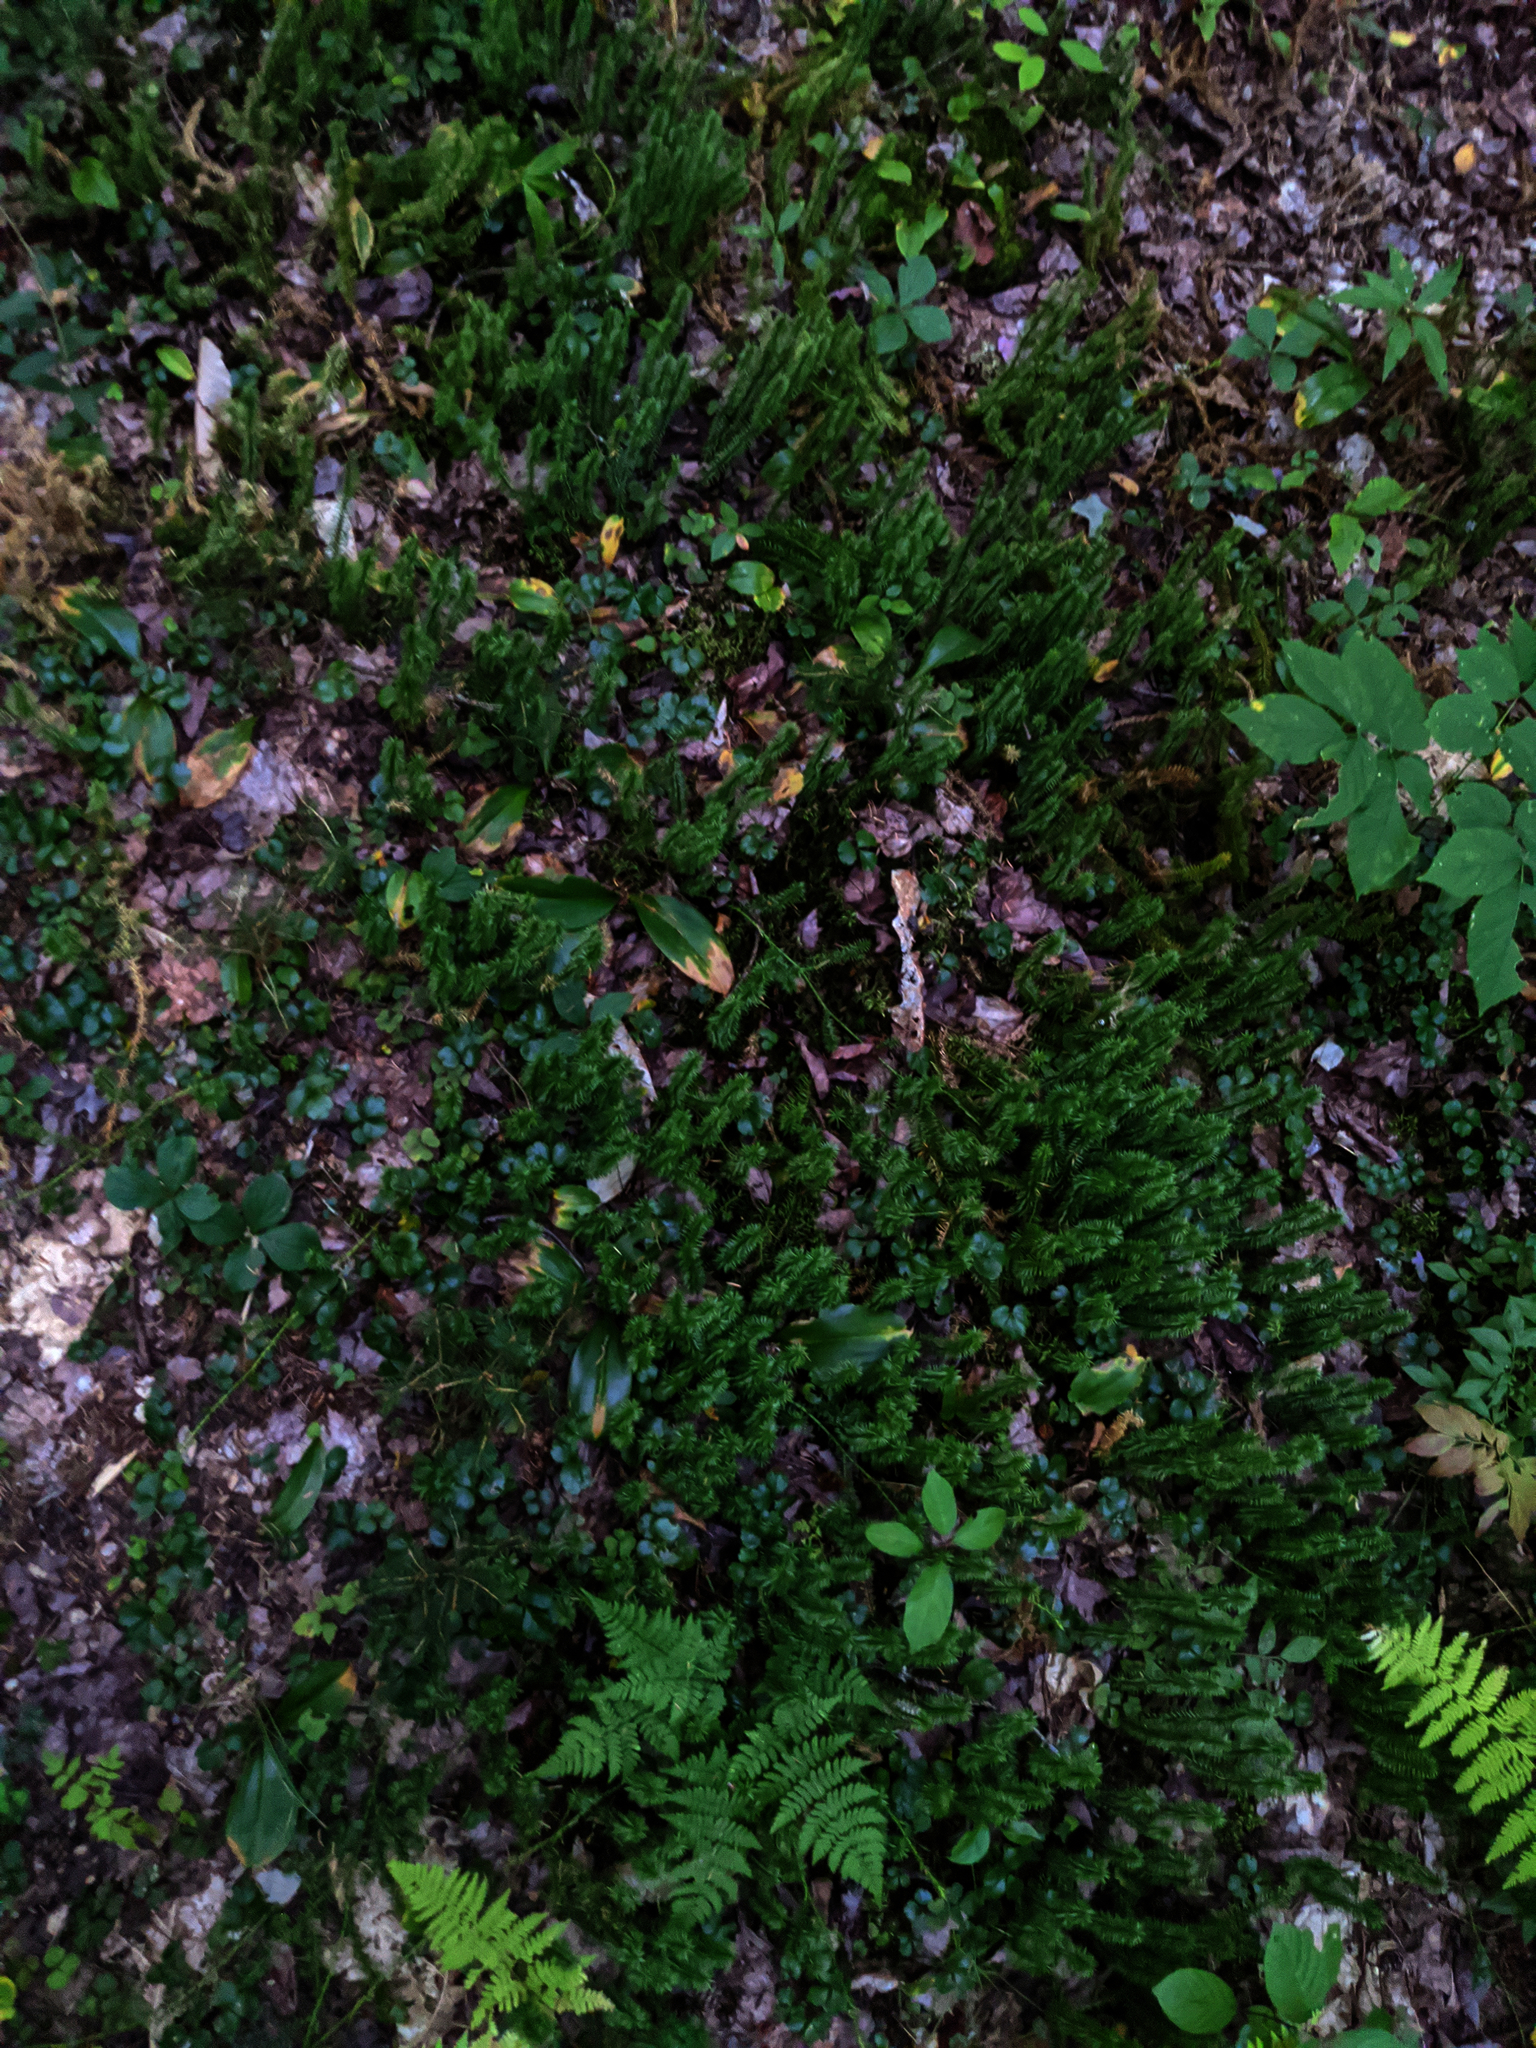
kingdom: Plantae
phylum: Tracheophyta
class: Lycopodiopsida
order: Lycopodiales
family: Lycopodiaceae
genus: Spinulum
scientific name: Spinulum annotinum
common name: Interrupted club-moss
